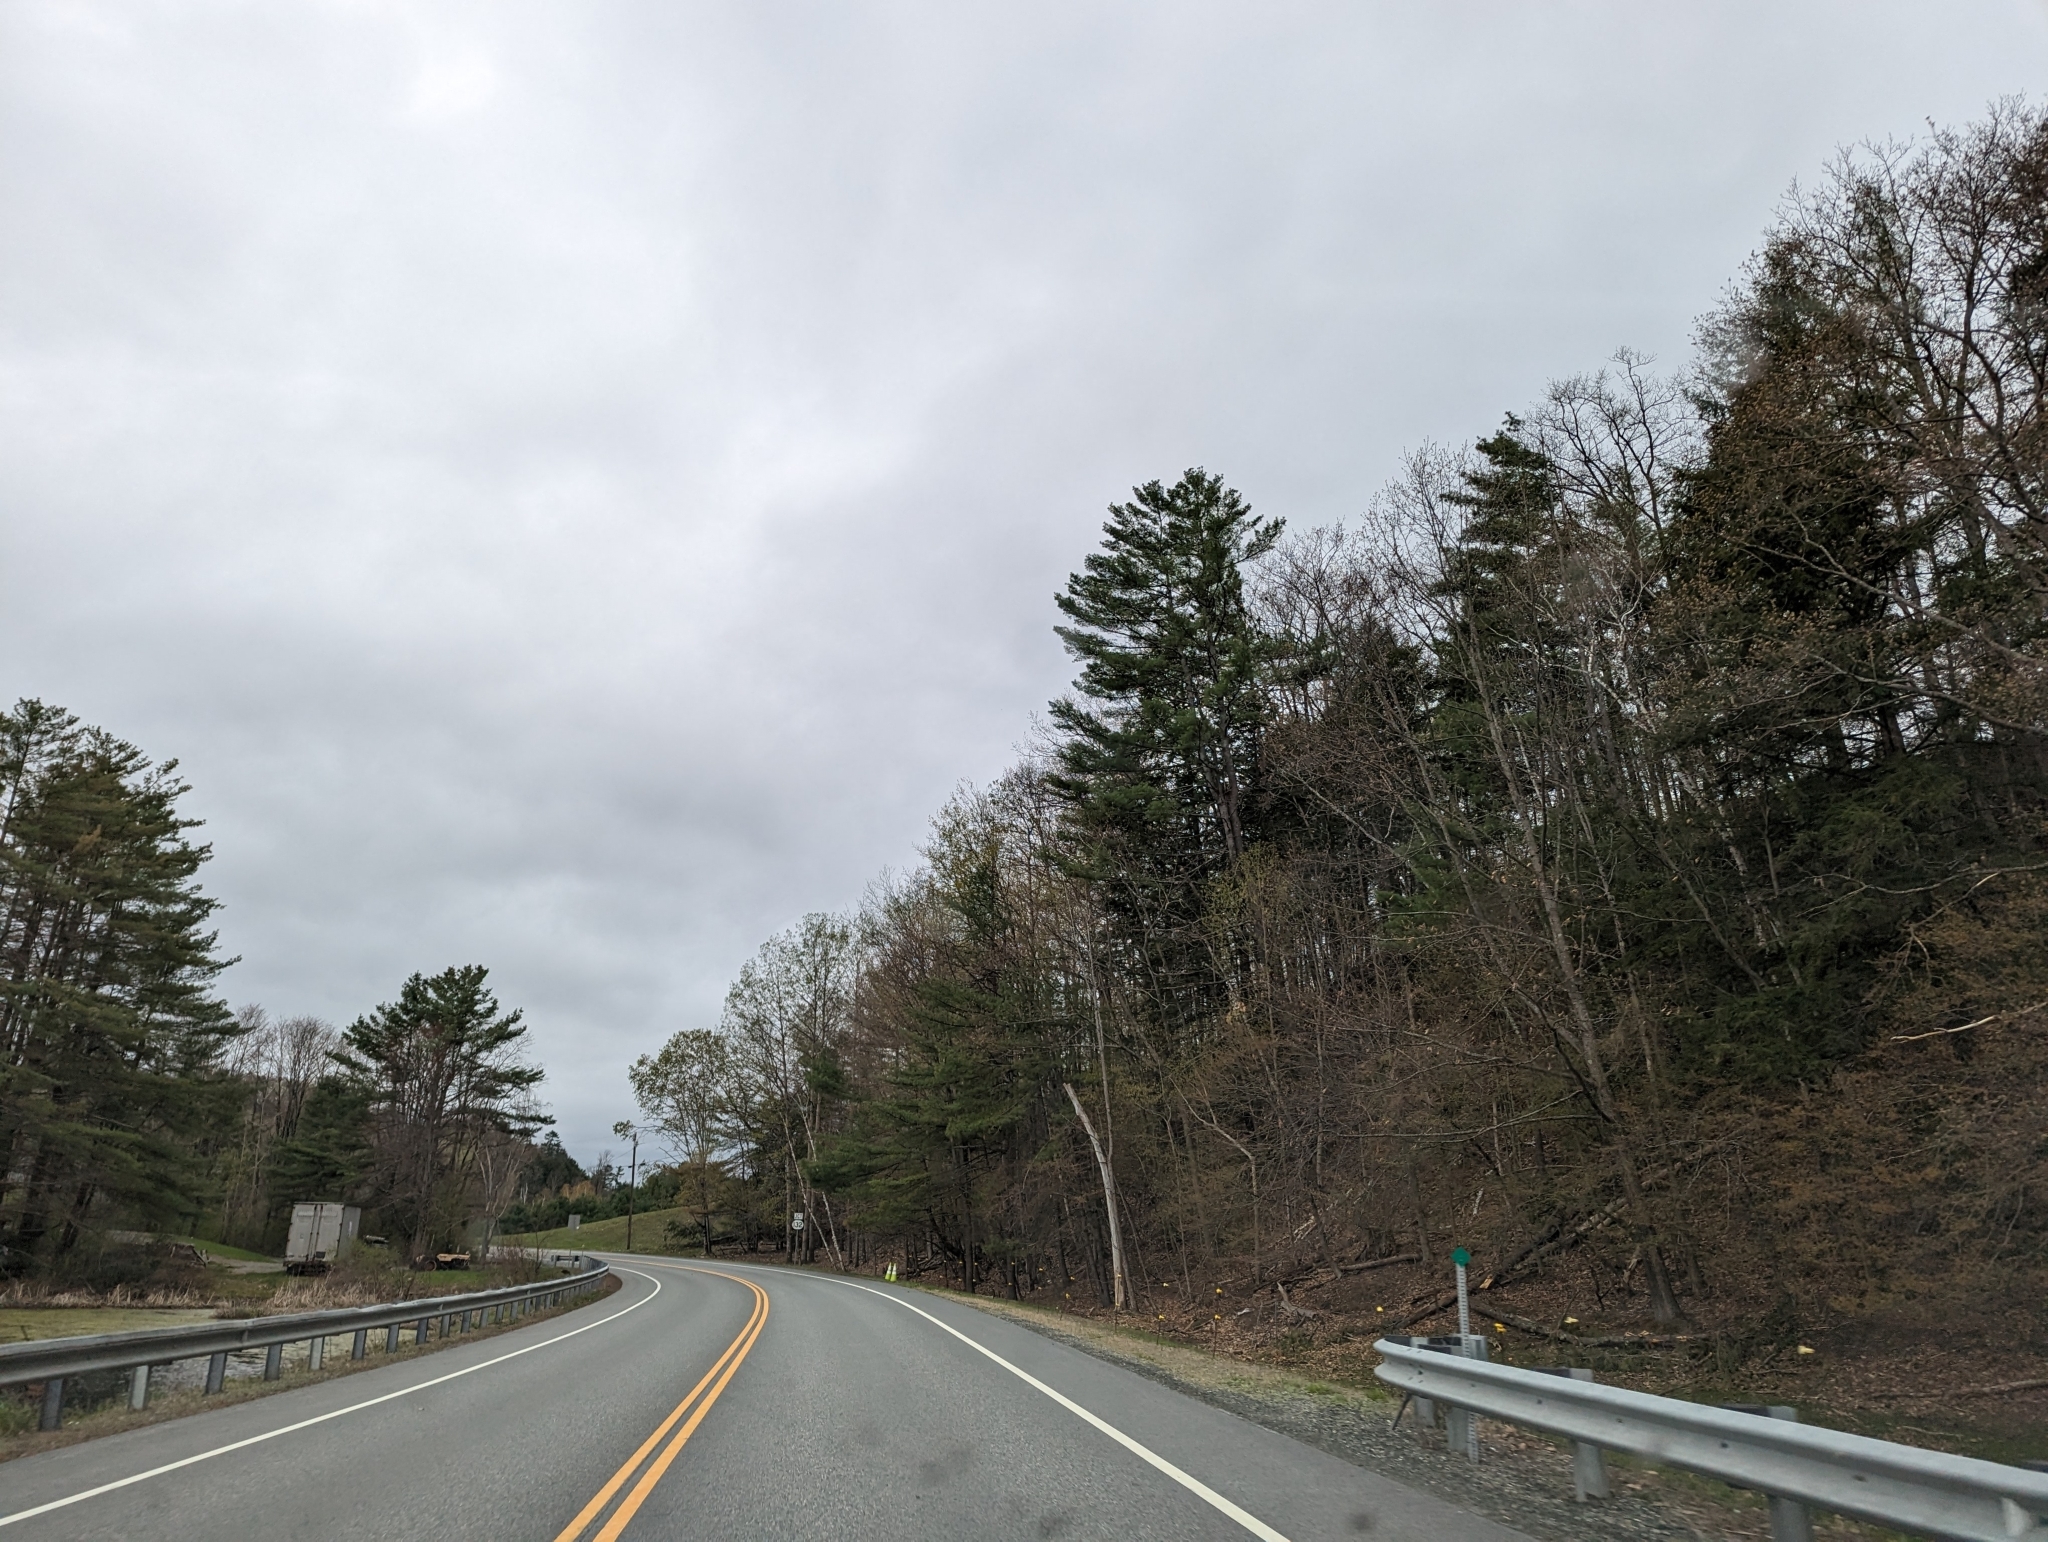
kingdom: Plantae
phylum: Tracheophyta
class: Pinopsida
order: Pinales
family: Pinaceae
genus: Pinus
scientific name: Pinus strobus
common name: Weymouth pine
